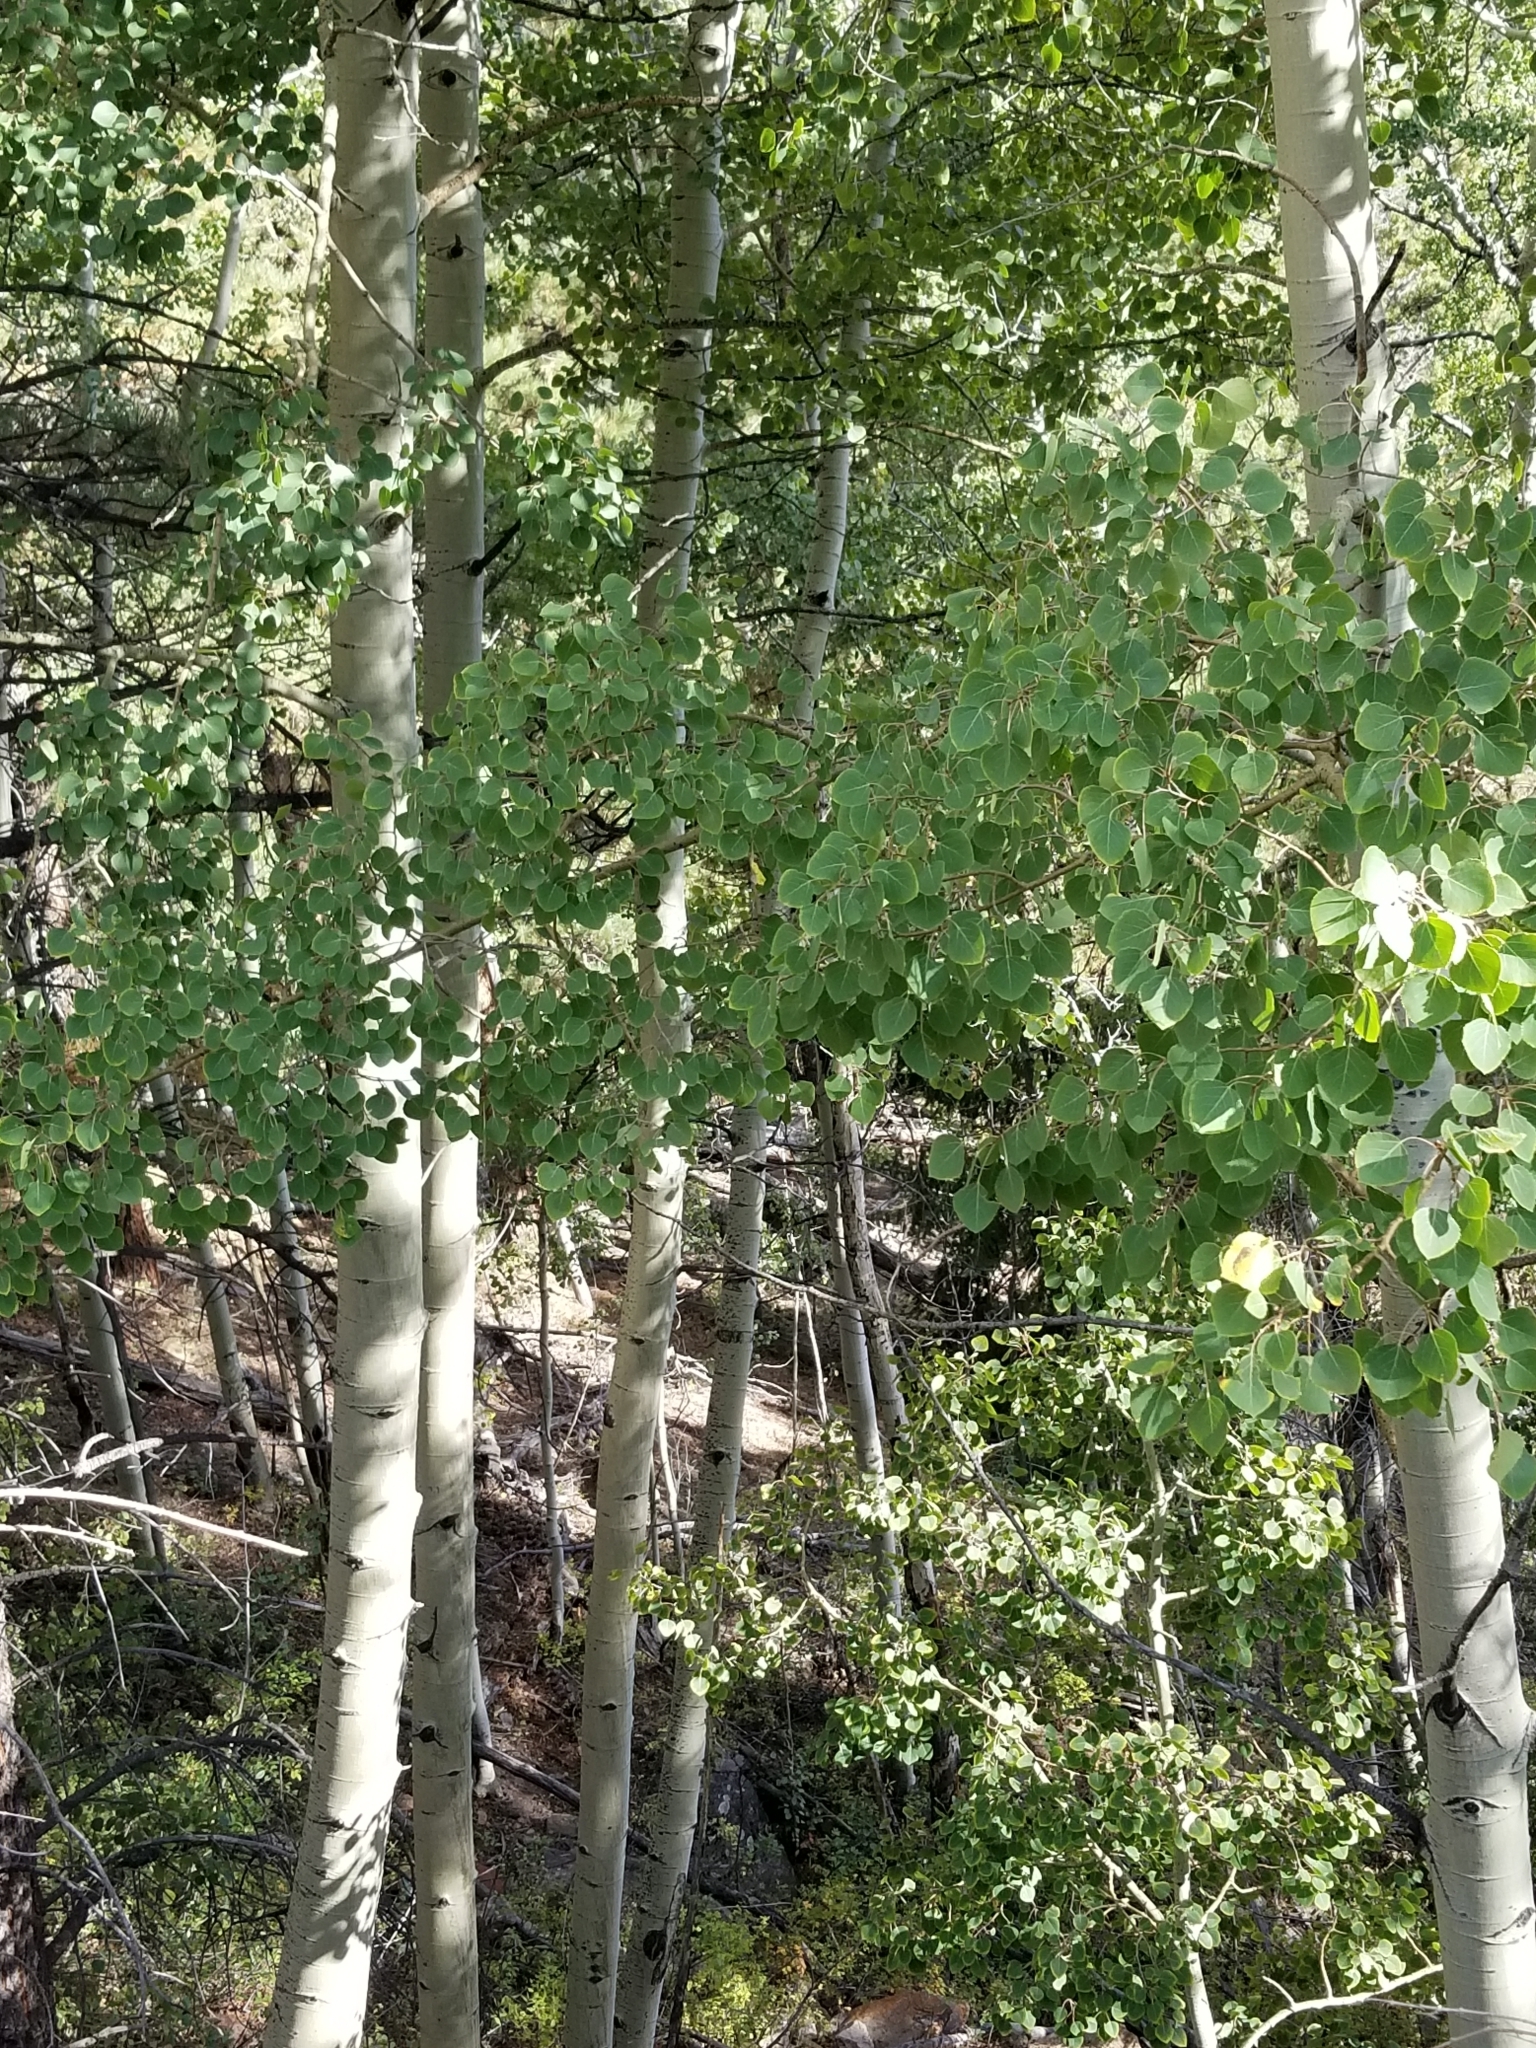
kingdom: Plantae
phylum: Tracheophyta
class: Magnoliopsida
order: Malpighiales
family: Salicaceae
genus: Populus
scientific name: Populus tremuloides
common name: Quaking aspen
